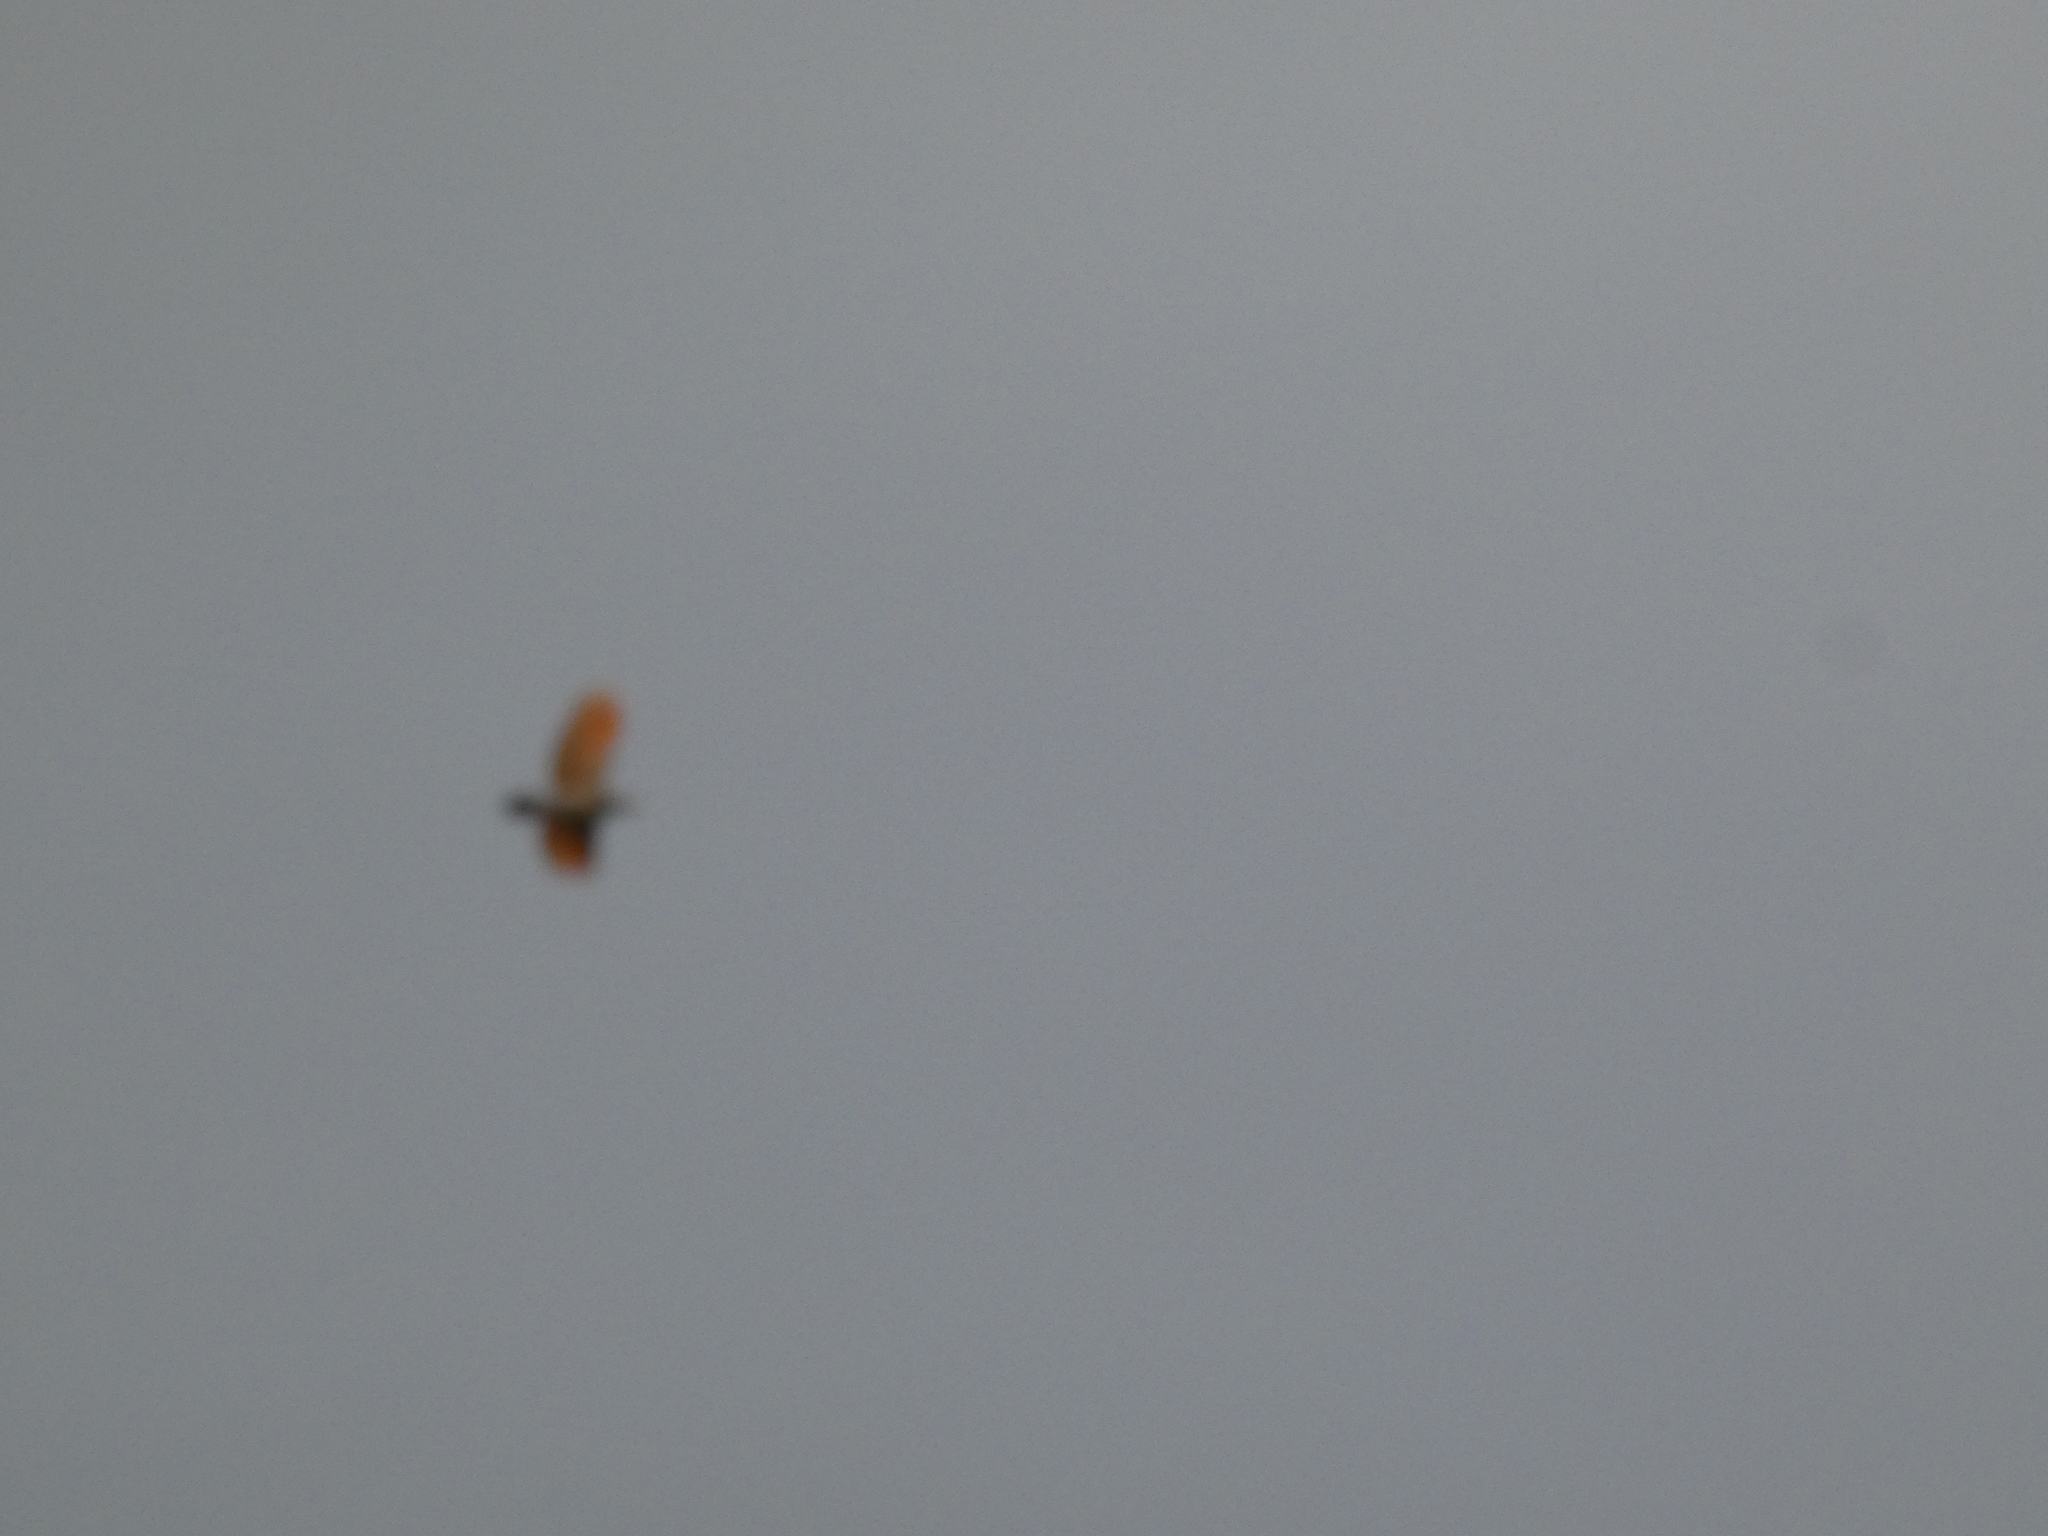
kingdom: Animalia
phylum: Chordata
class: Aves
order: Piciformes
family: Picidae
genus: Colaptes
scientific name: Colaptes auratus
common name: Northern flicker
